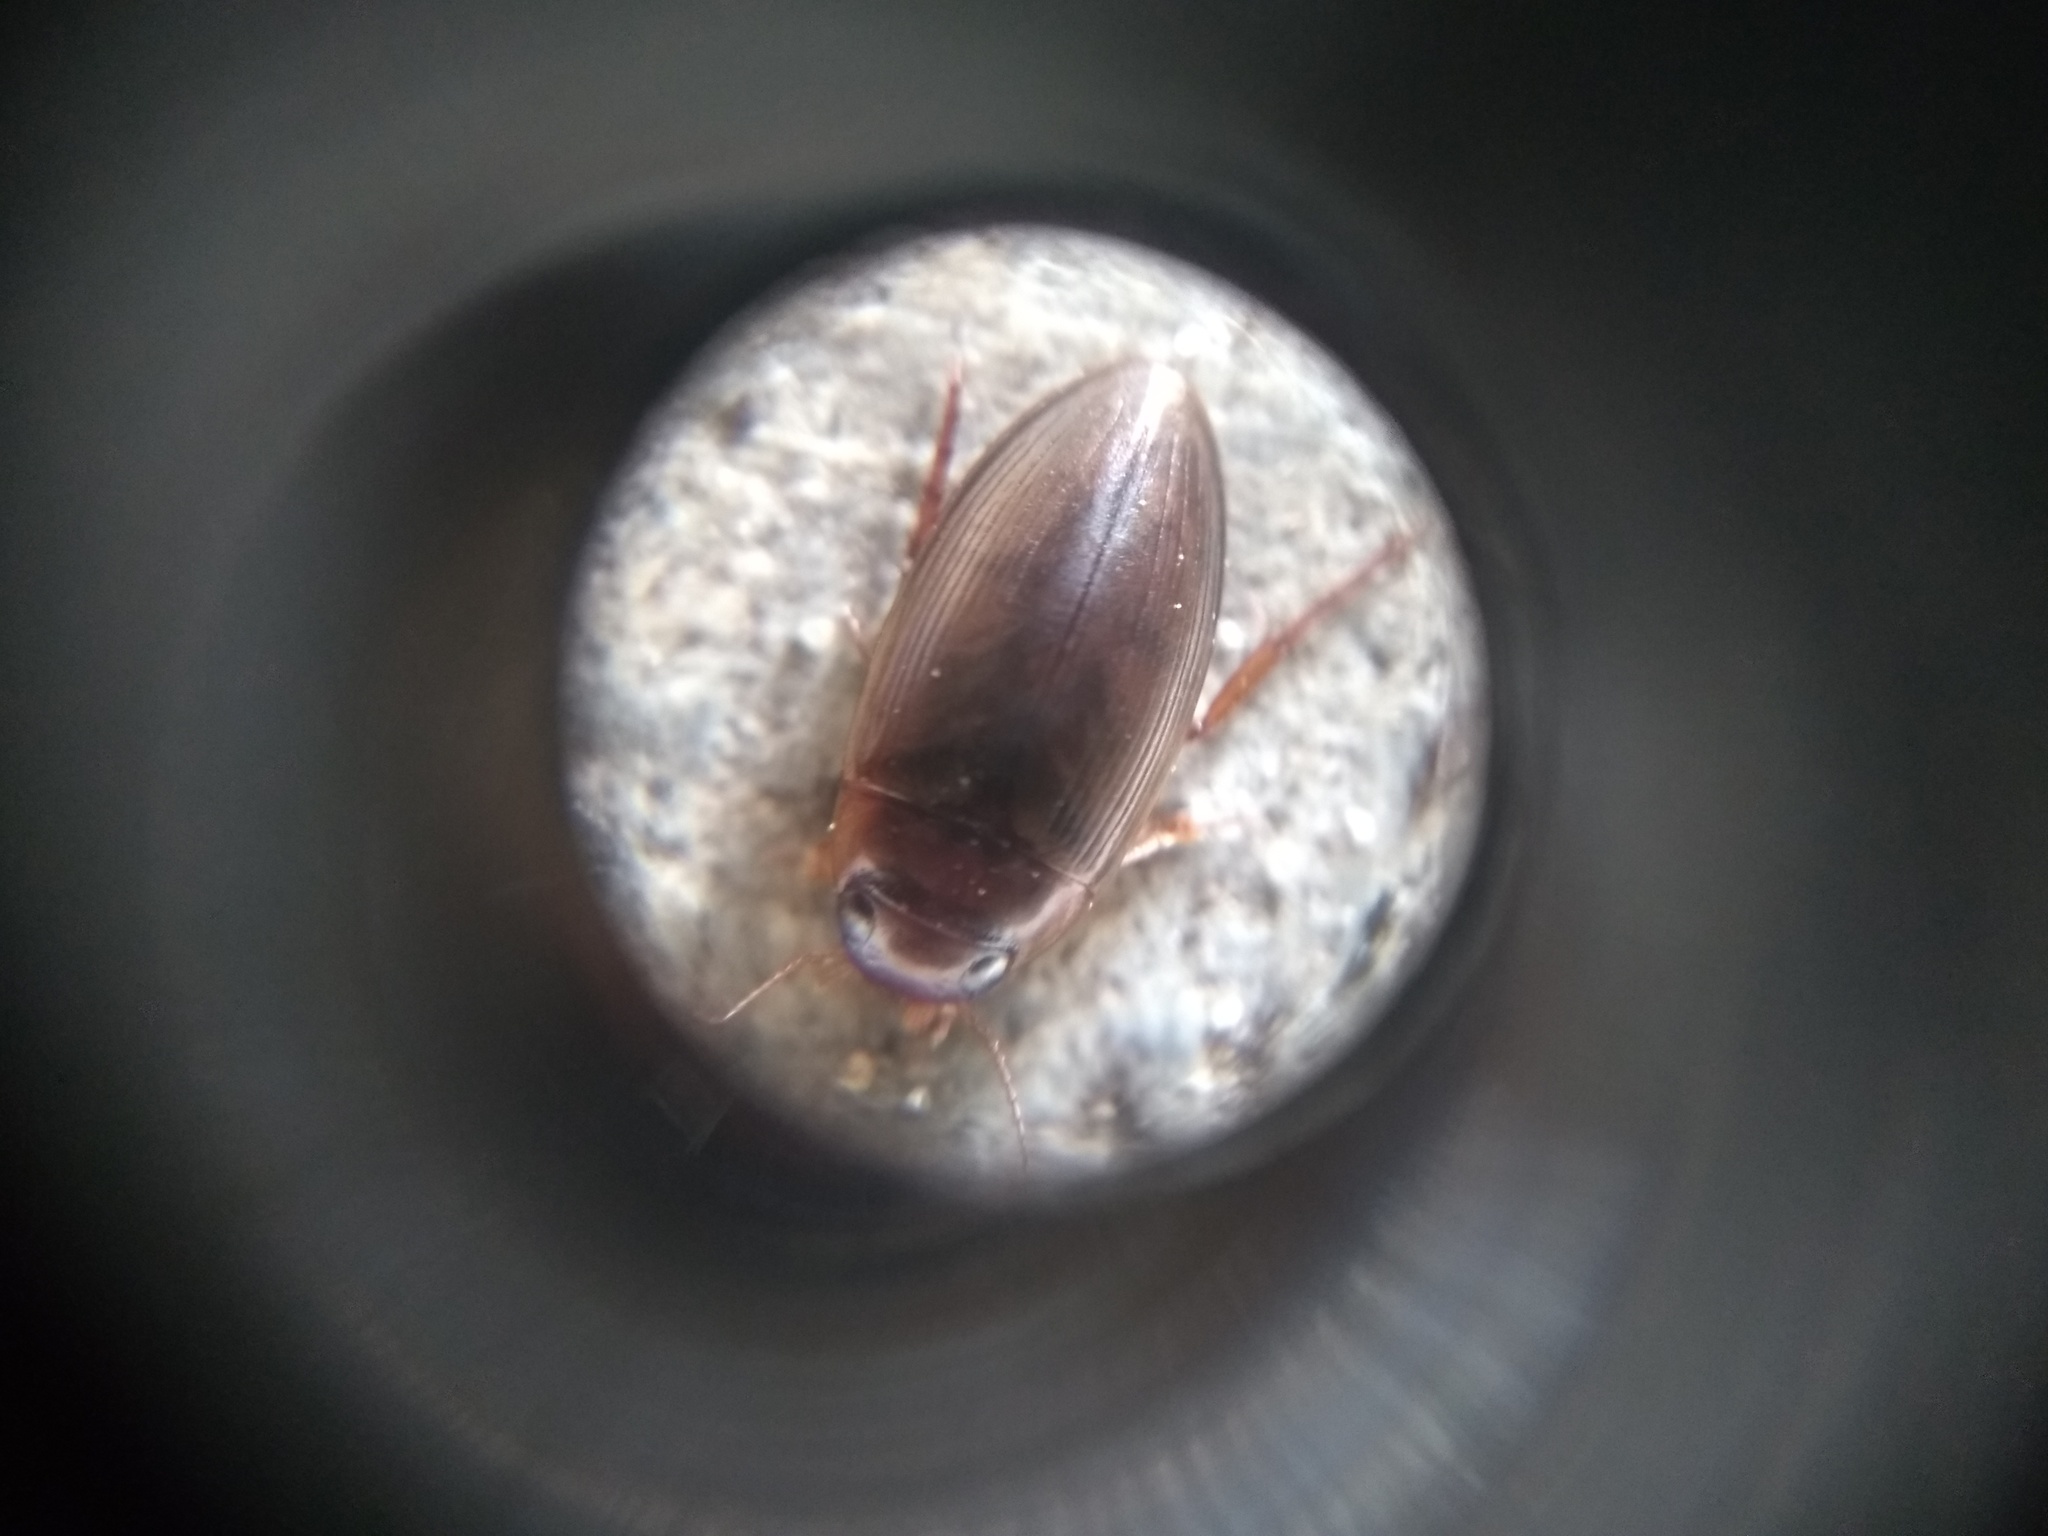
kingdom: Animalia
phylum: Arthropoda
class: Insecta
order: Coleoptera
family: Dytiscidae
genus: Copelatus
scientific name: Copelatus chevrolati
